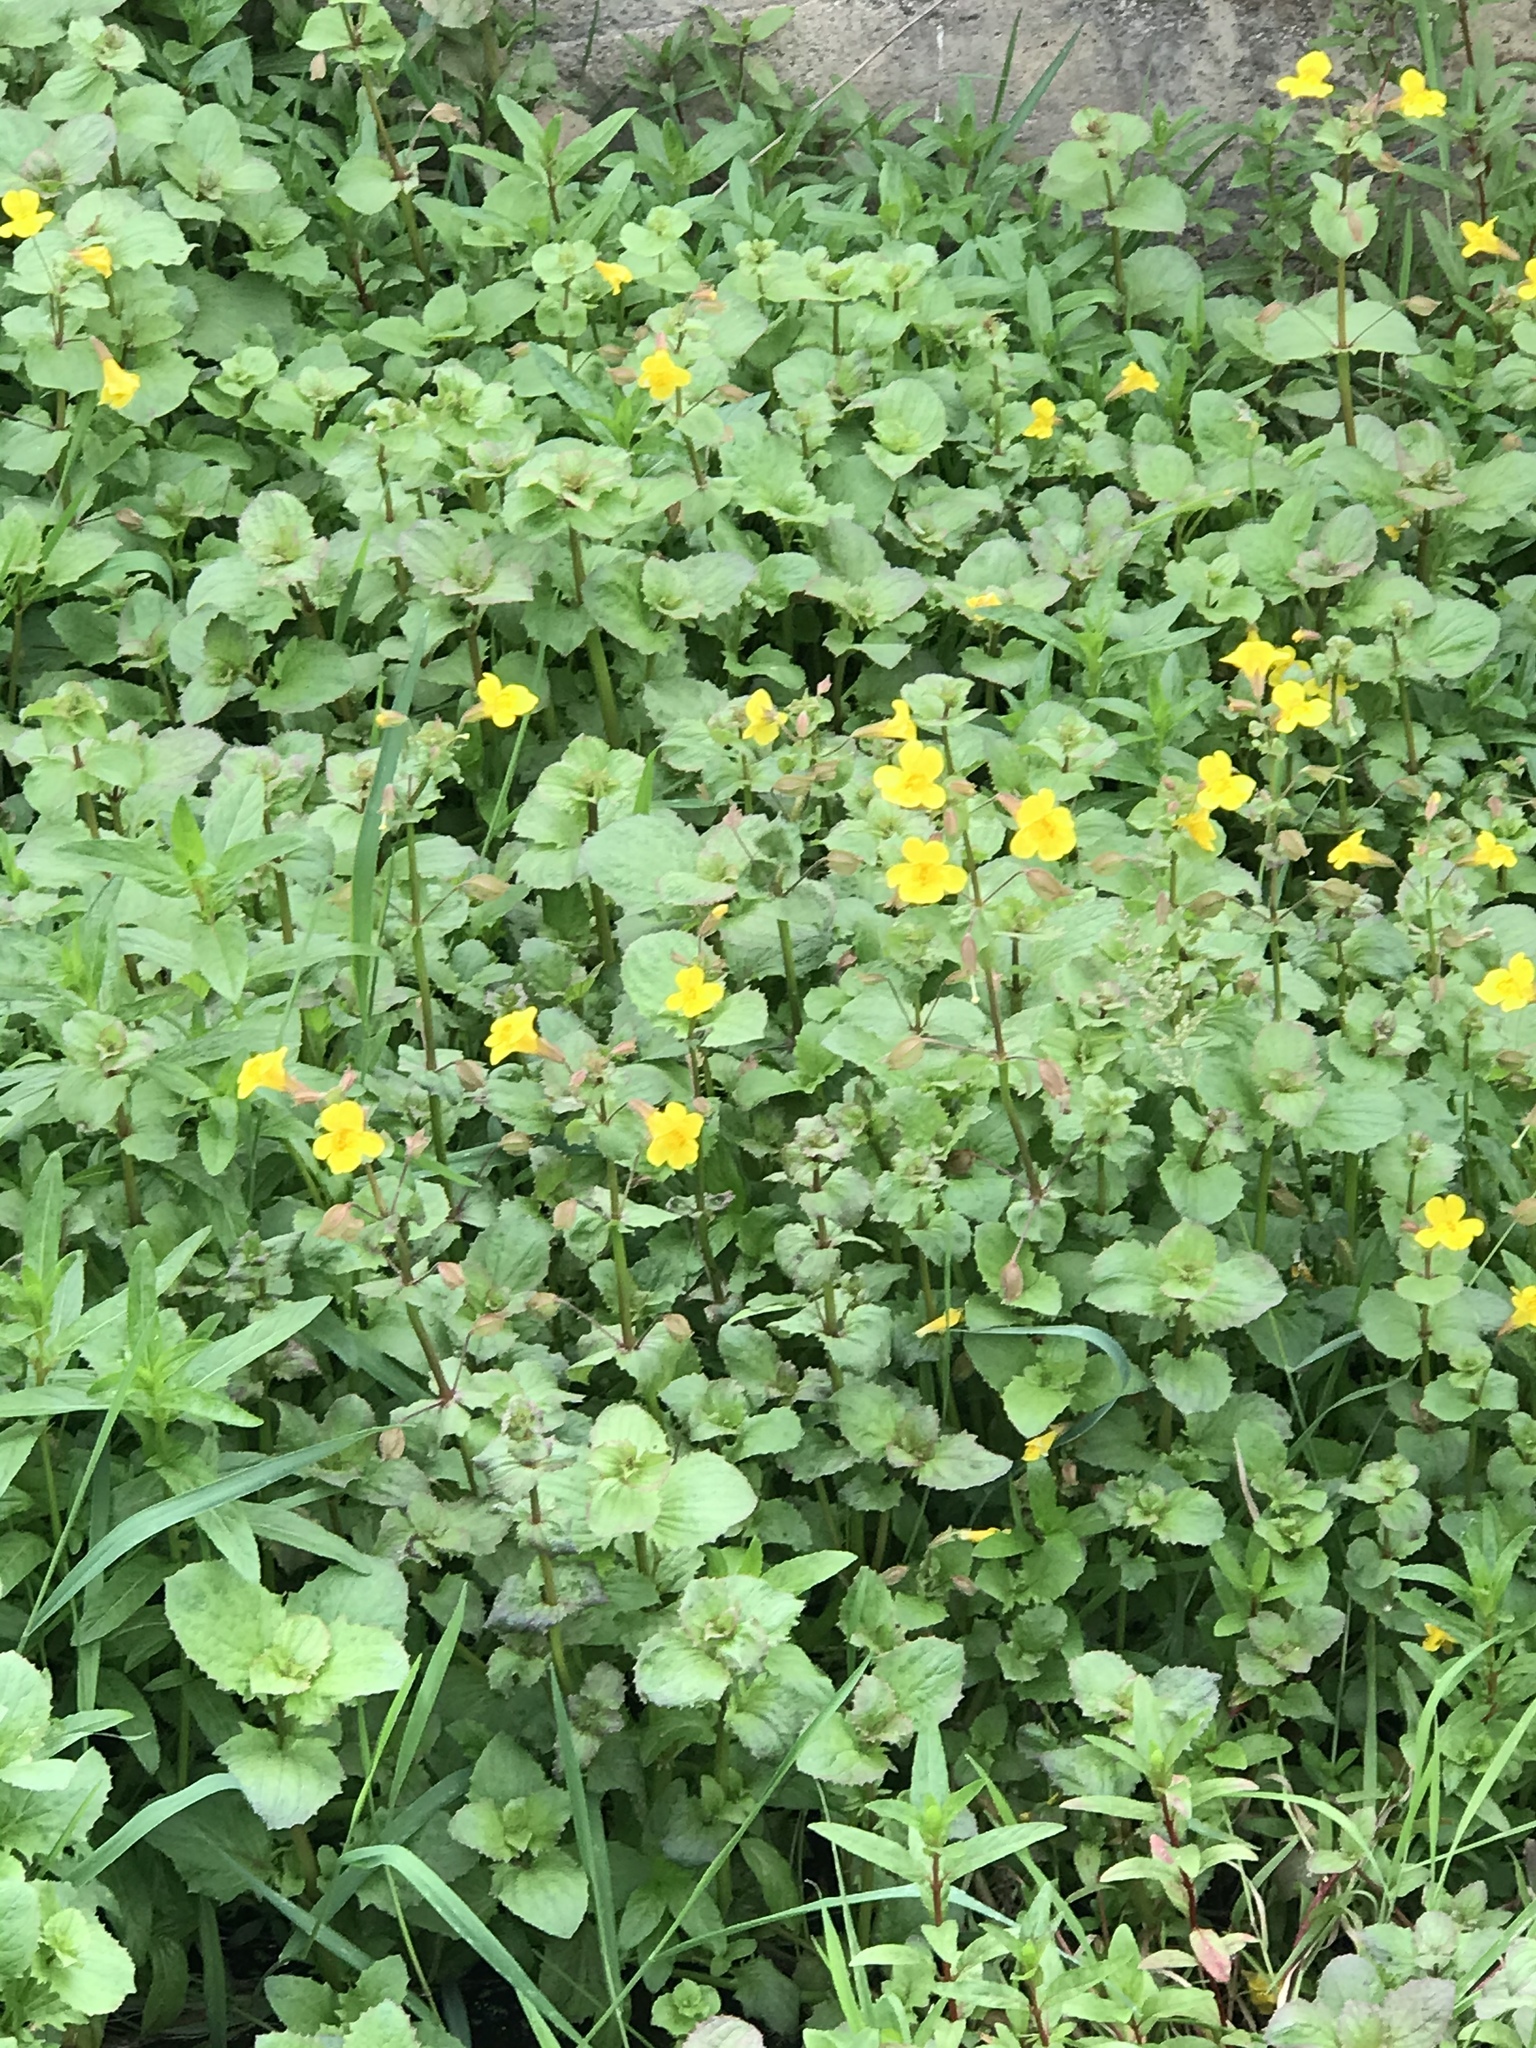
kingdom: Plantae
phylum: Tracheophyta
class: Magnoliopsida
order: Lamiales
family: Phrymaceae
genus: Erythranthe
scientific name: Erythranthe guttata
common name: Monkeyflower
